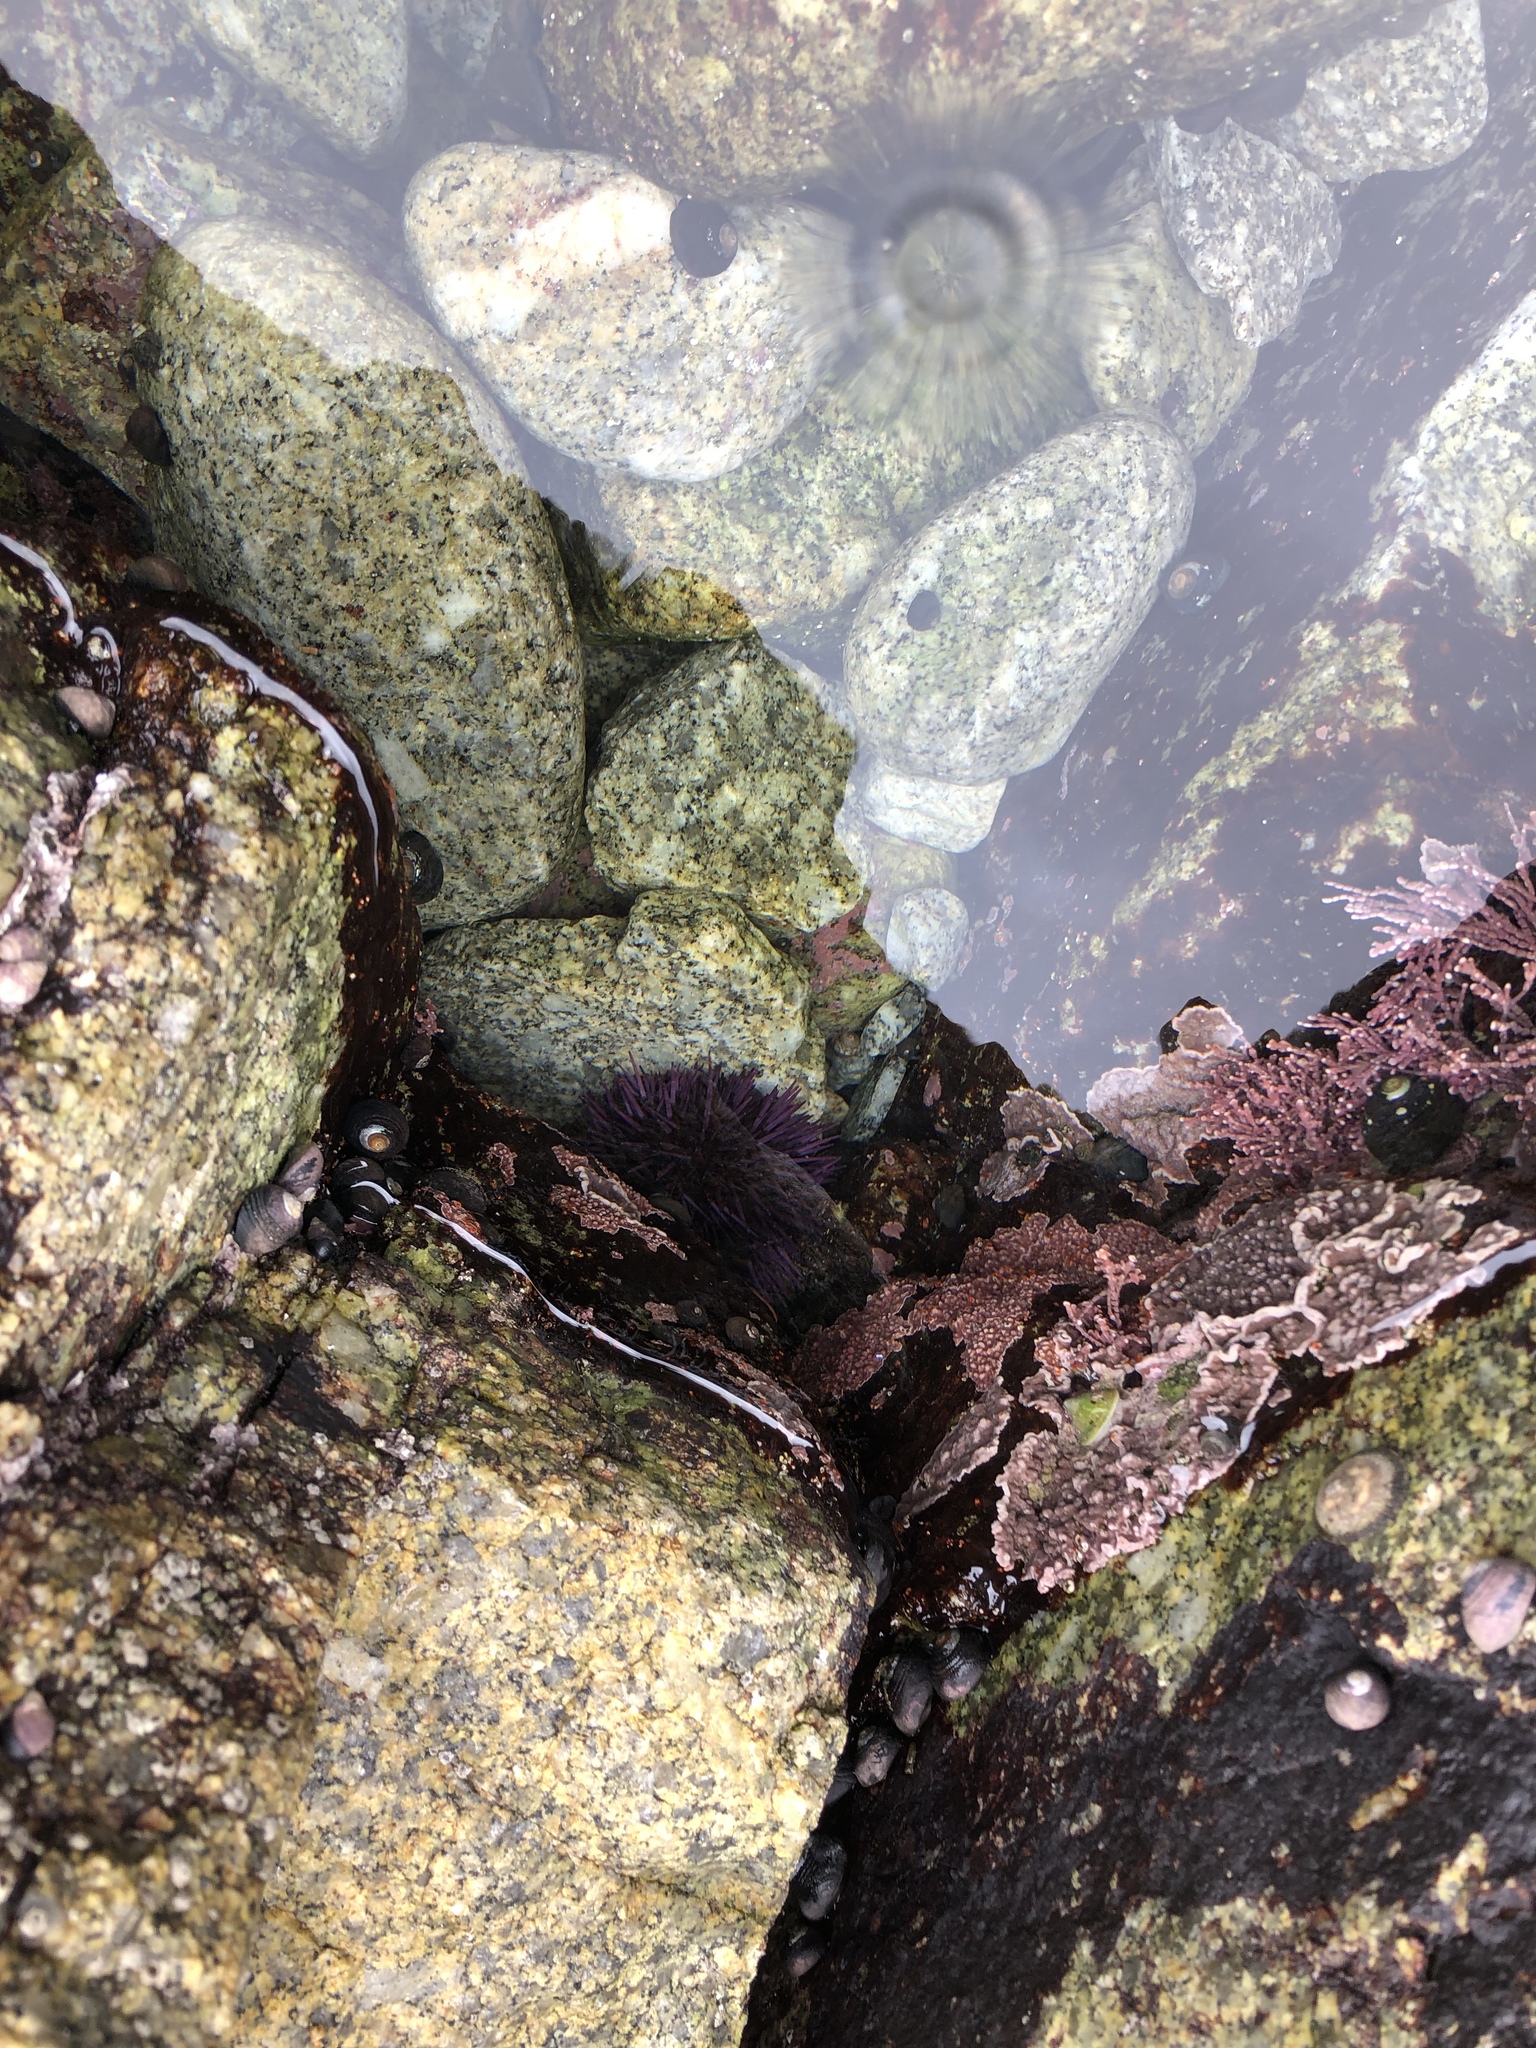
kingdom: Animalia
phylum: Echinodermata
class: Echinoidea
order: Camarodonta
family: Strongylocentrotidae
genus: Strongylocentrotus
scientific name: Strongylocentrotus purpuratus
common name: Purple sea urchin
